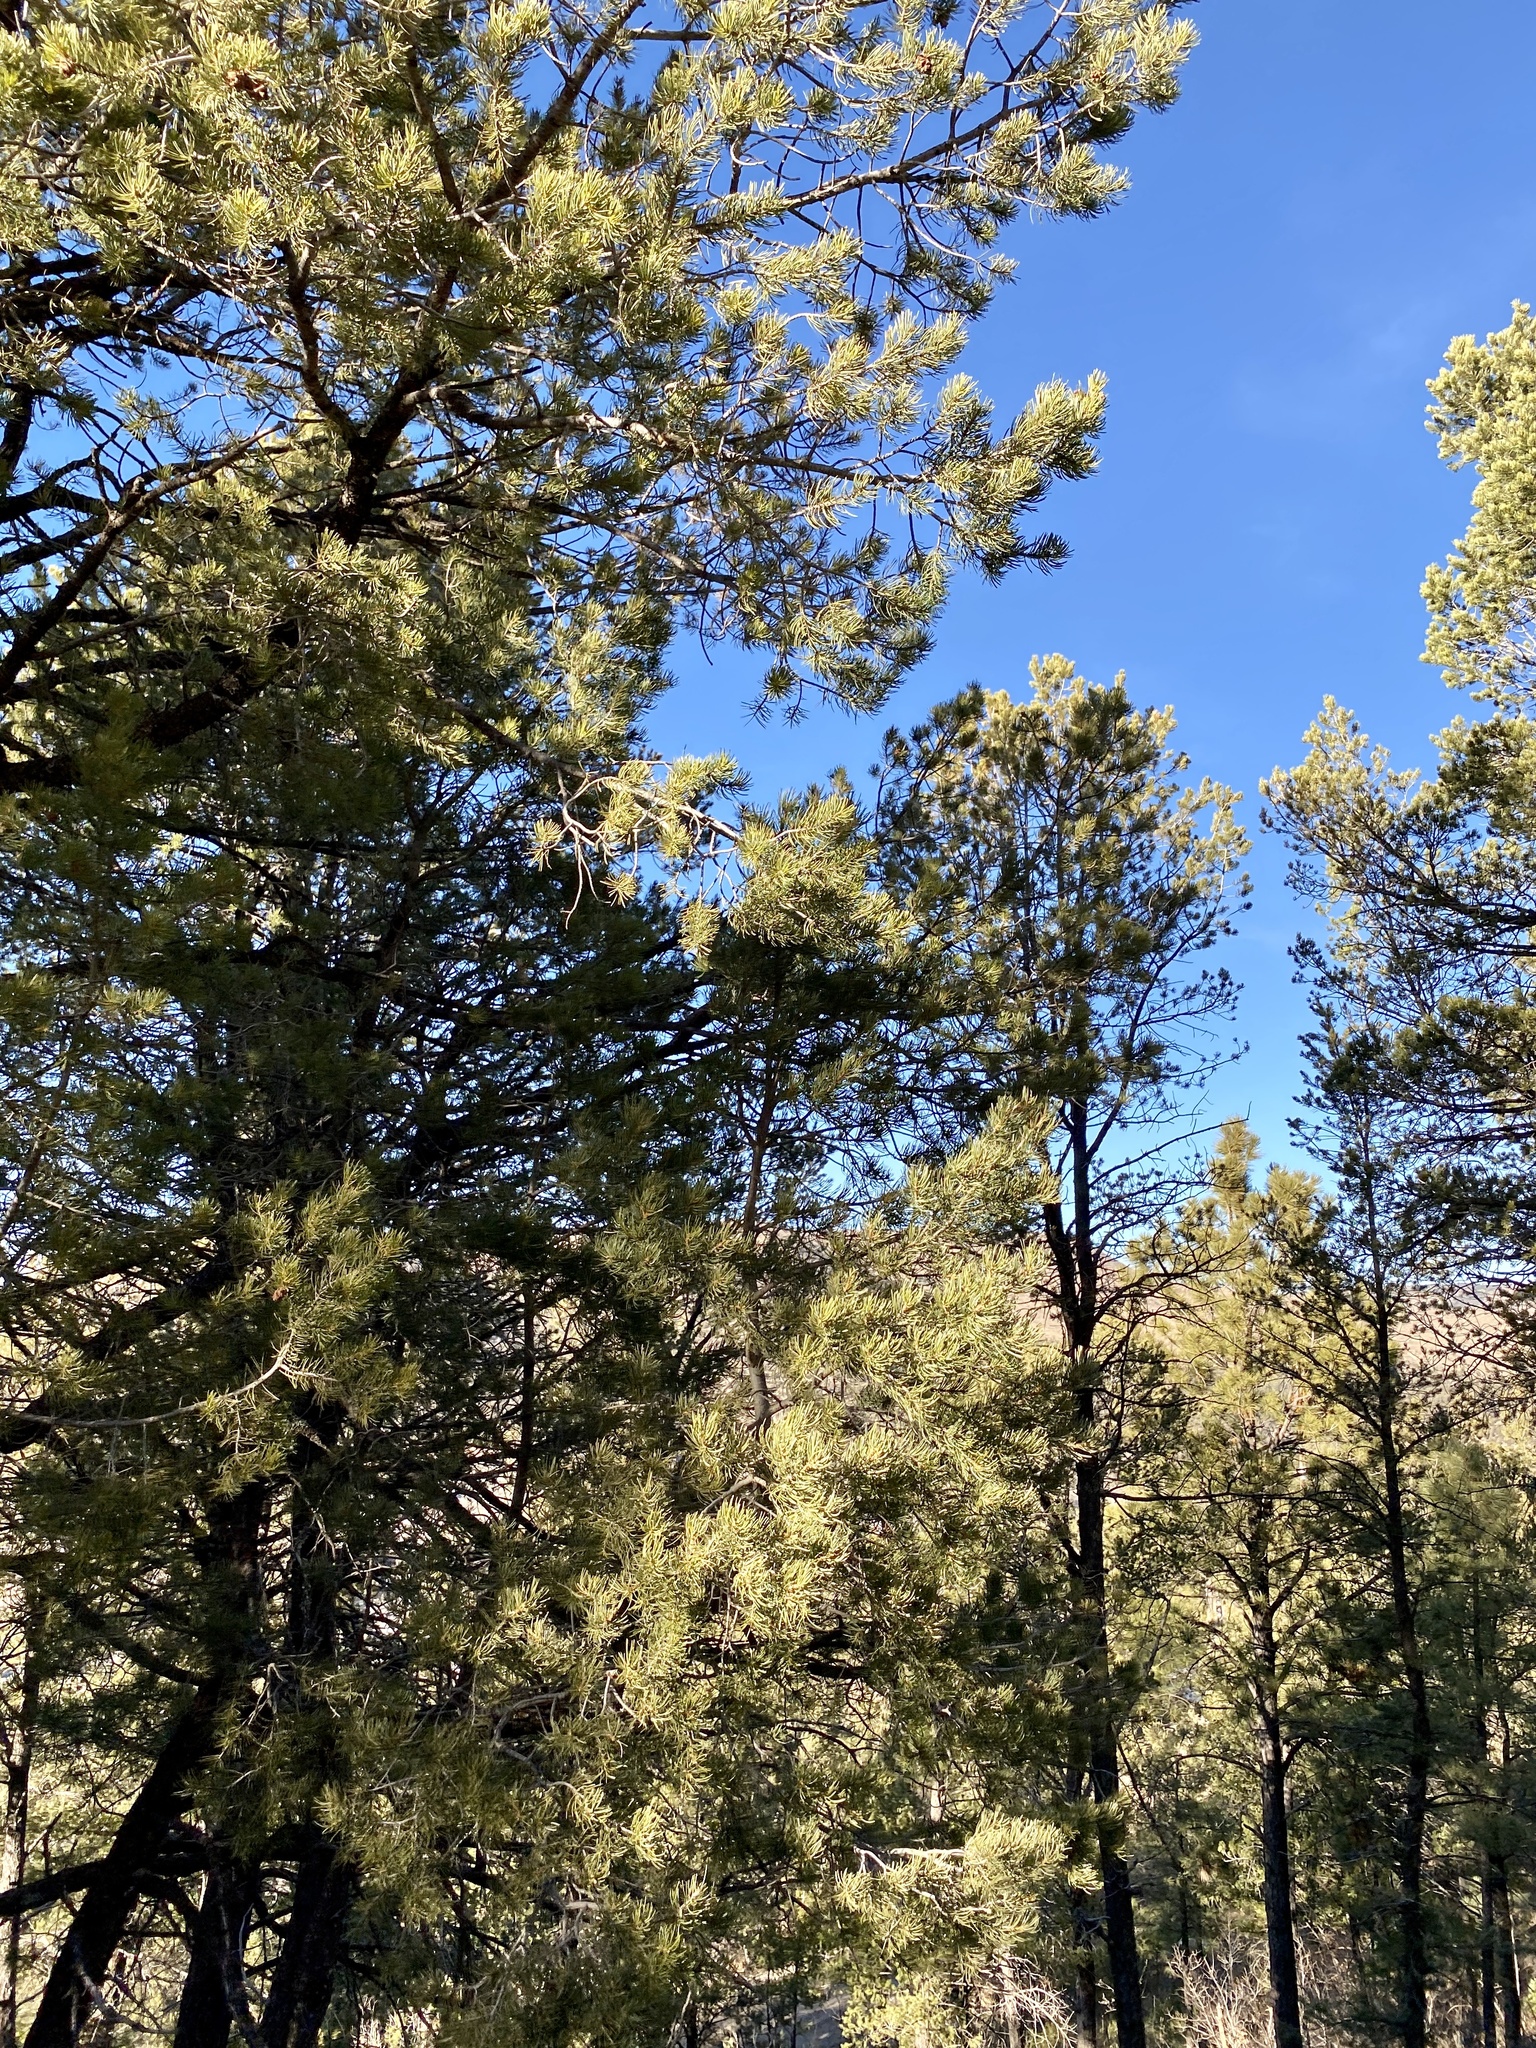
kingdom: Plantae
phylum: Tracheophyta
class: Pinopsida
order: Pinales
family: Pinaceae
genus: Pinus
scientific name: Pinus edulis
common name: Colorado pinyon
